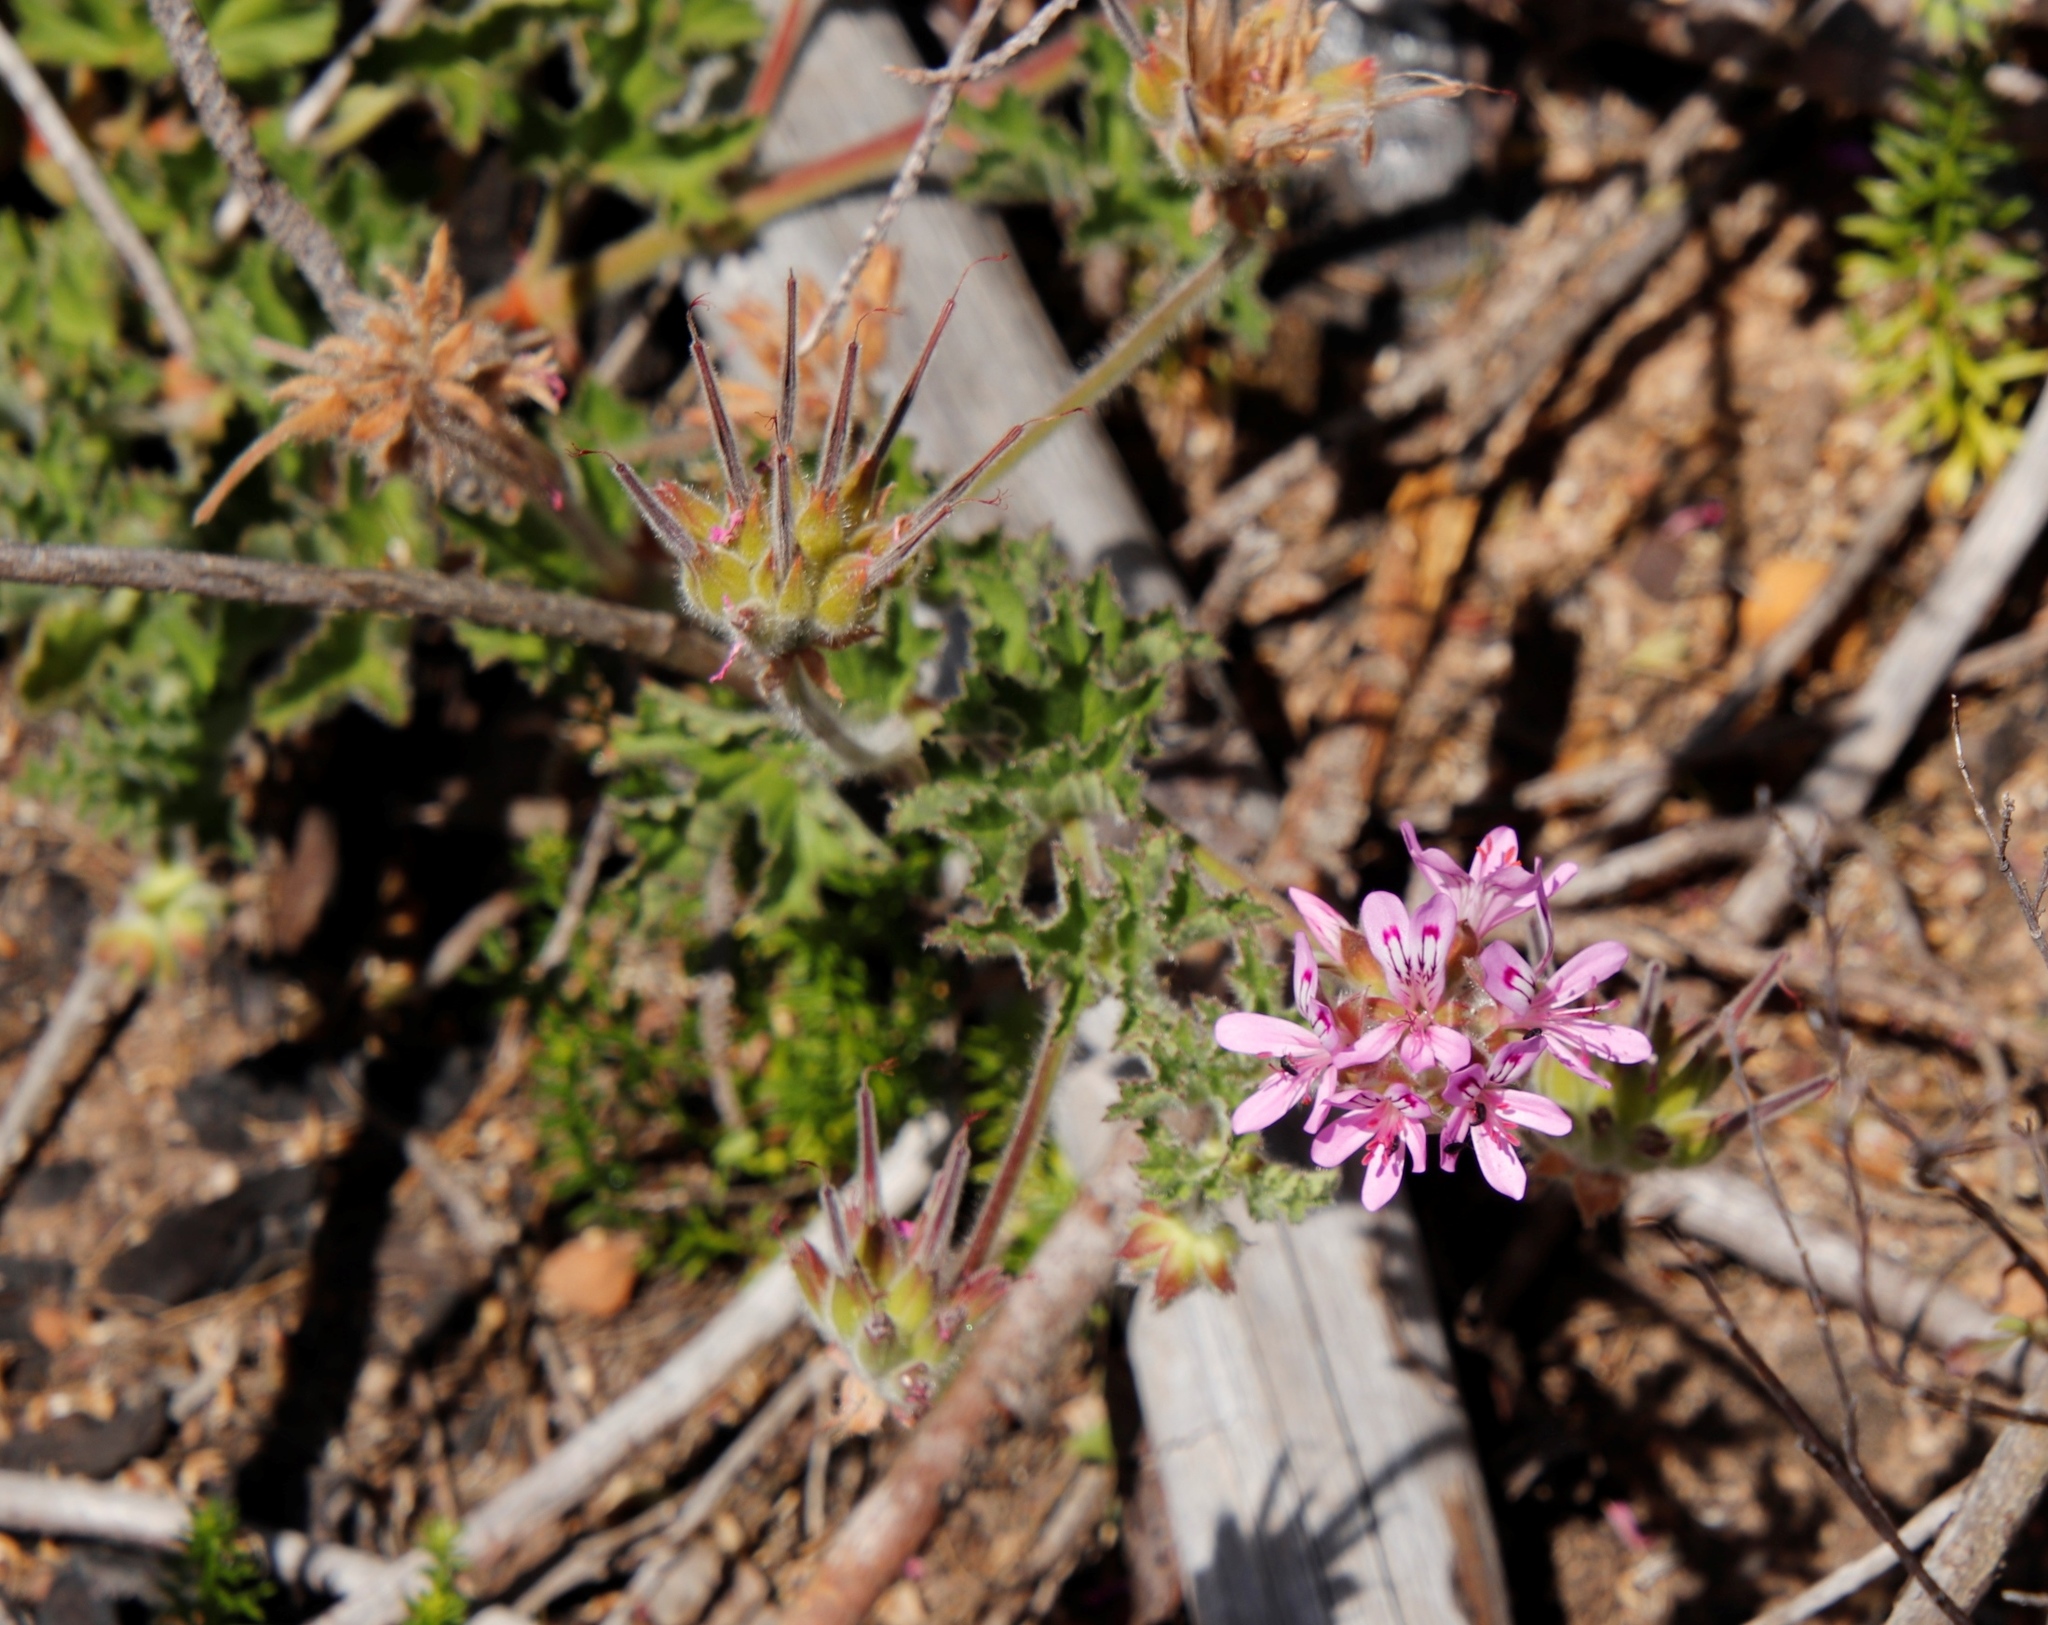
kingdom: Plantae
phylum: Tracheophyta
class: Magnoliopsida
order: Geraniales
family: Geraniaceae
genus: Pelargonium
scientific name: Pelargonium capitatum
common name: Rose scented geranium
